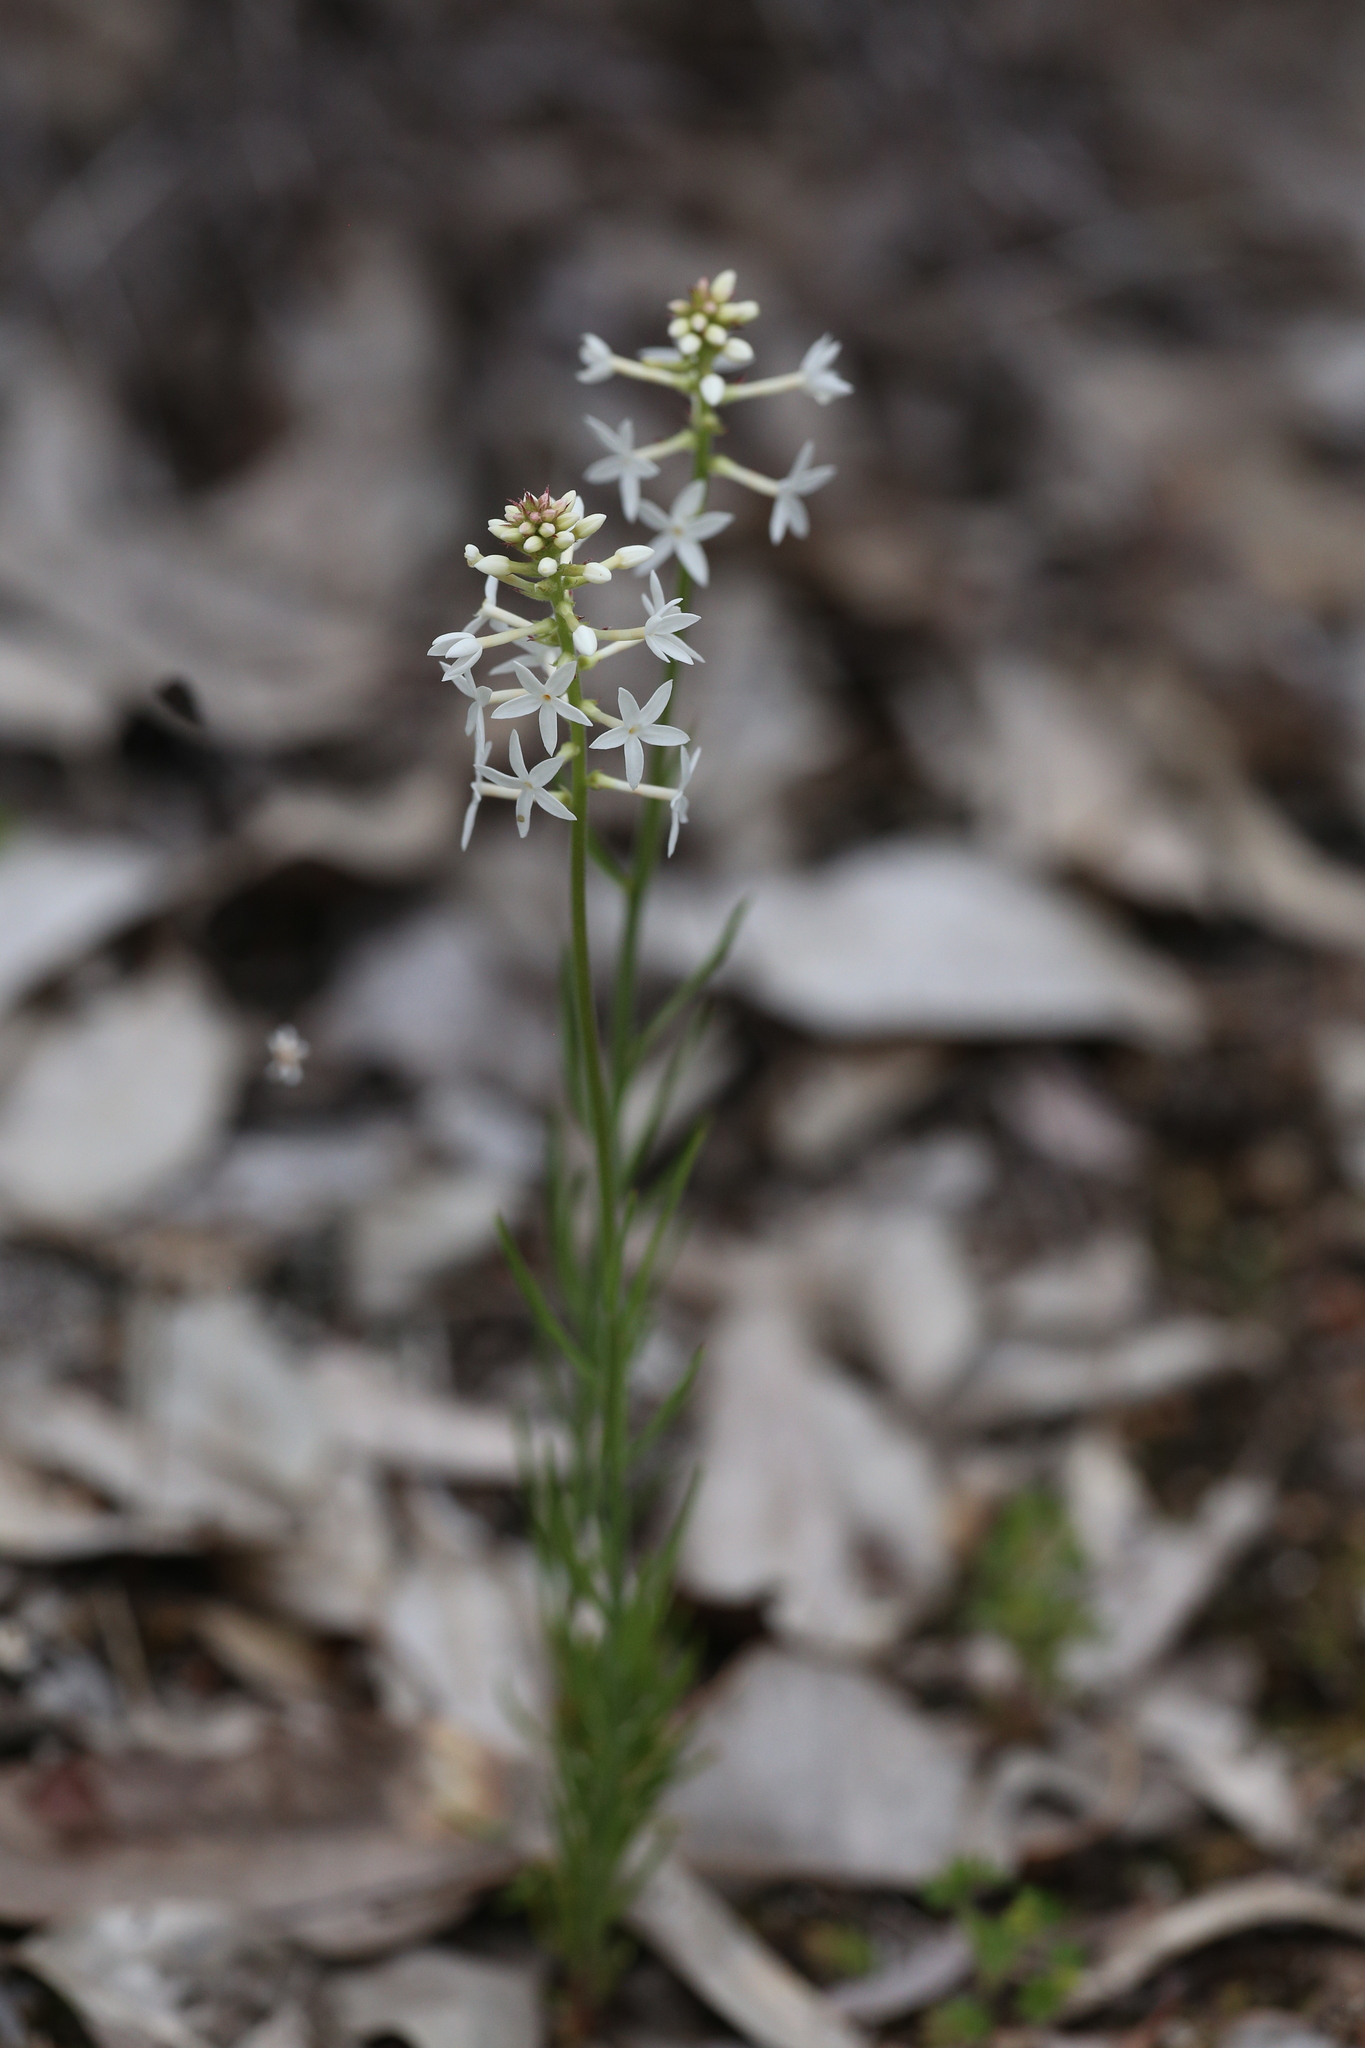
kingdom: Plantae
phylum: Tracheophyta
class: Magnoliopsida
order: Celastrales
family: Celastraceae
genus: Stackhousia
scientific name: Stackhousia monogyna
